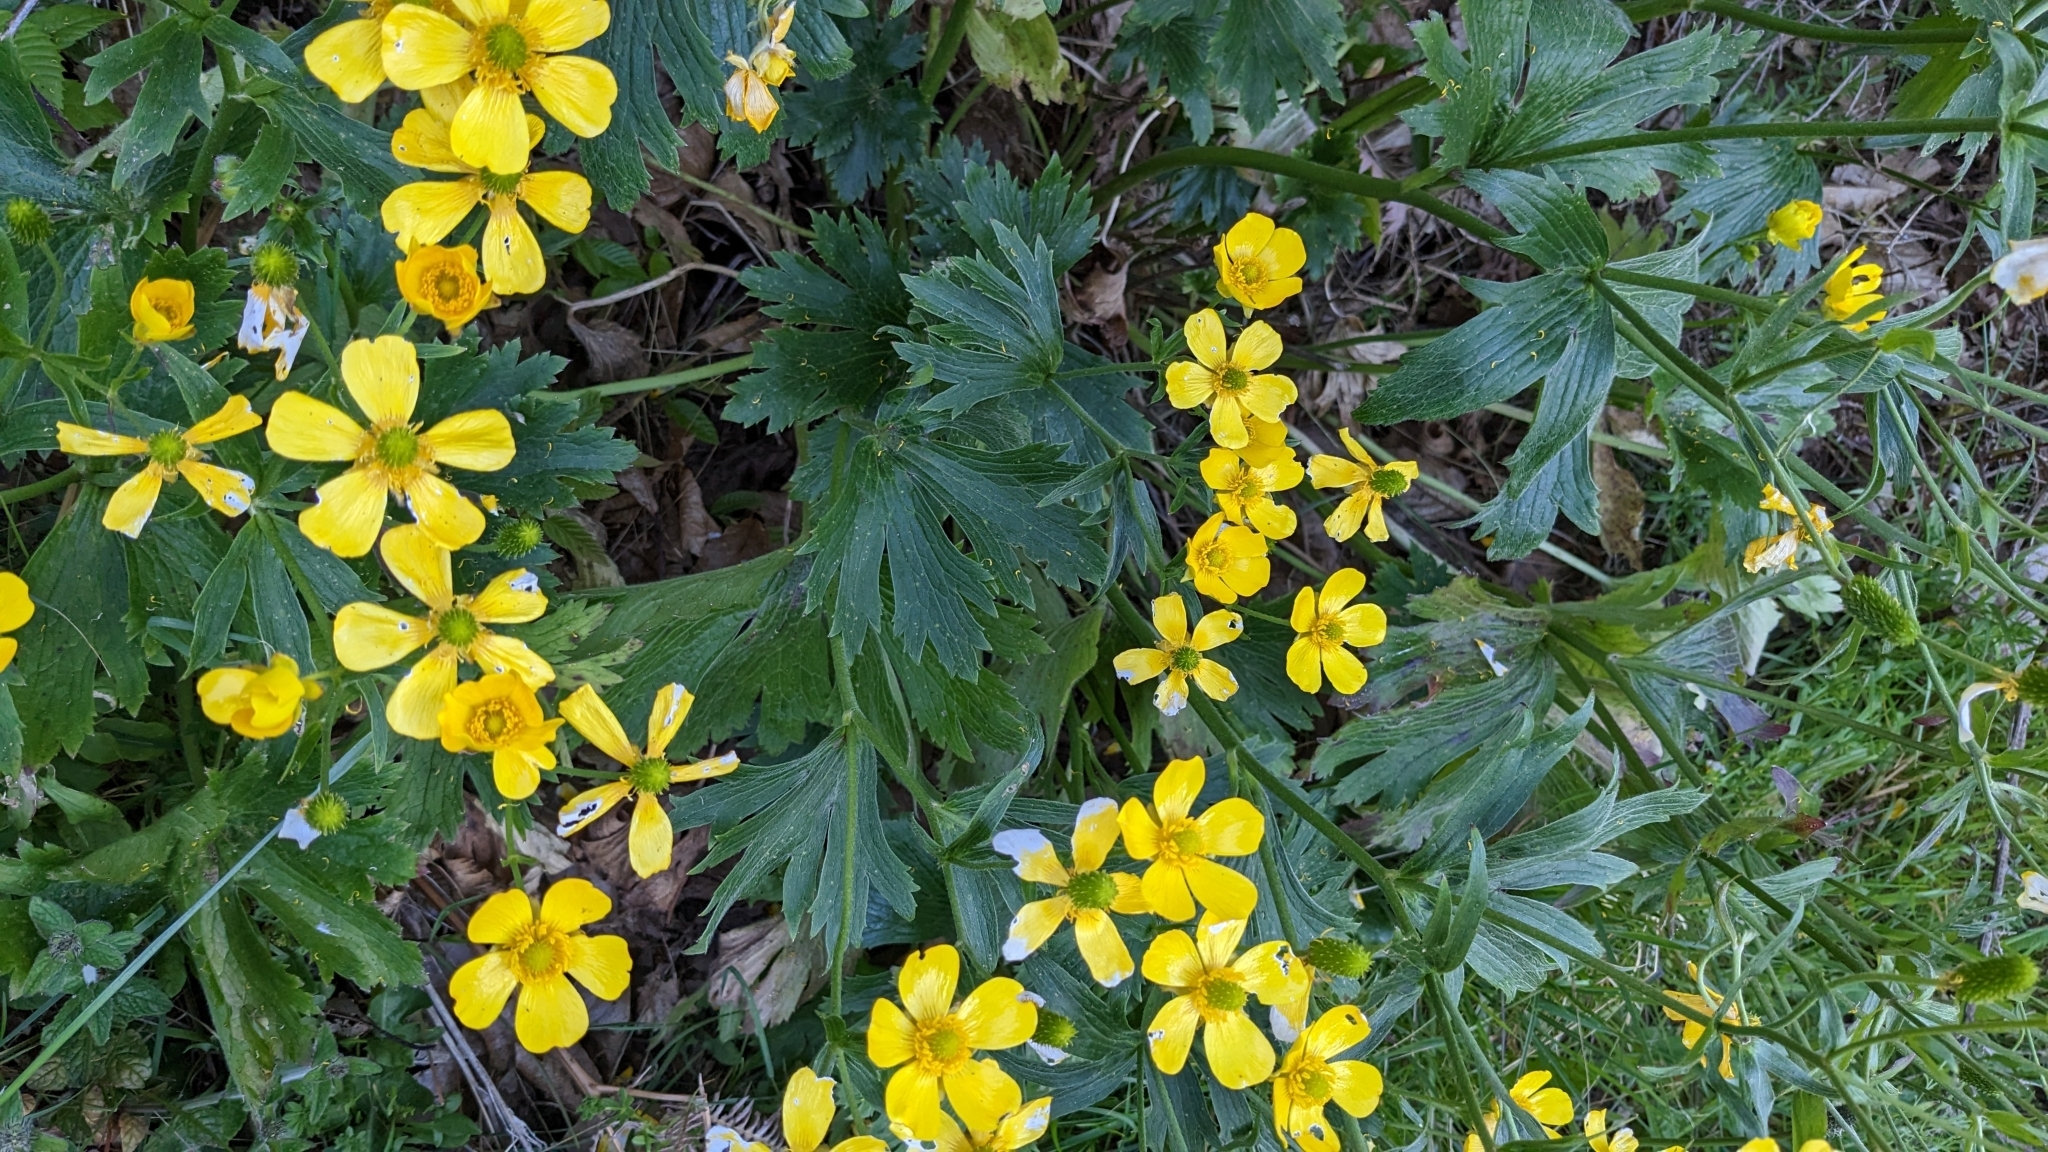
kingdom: Plantae
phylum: Tracheophyta
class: Magnoliopsida
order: Ranunculales
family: Ranunculaceae
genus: Ranunculus
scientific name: Ranunculus cortusifolius
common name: Azores buttercup
